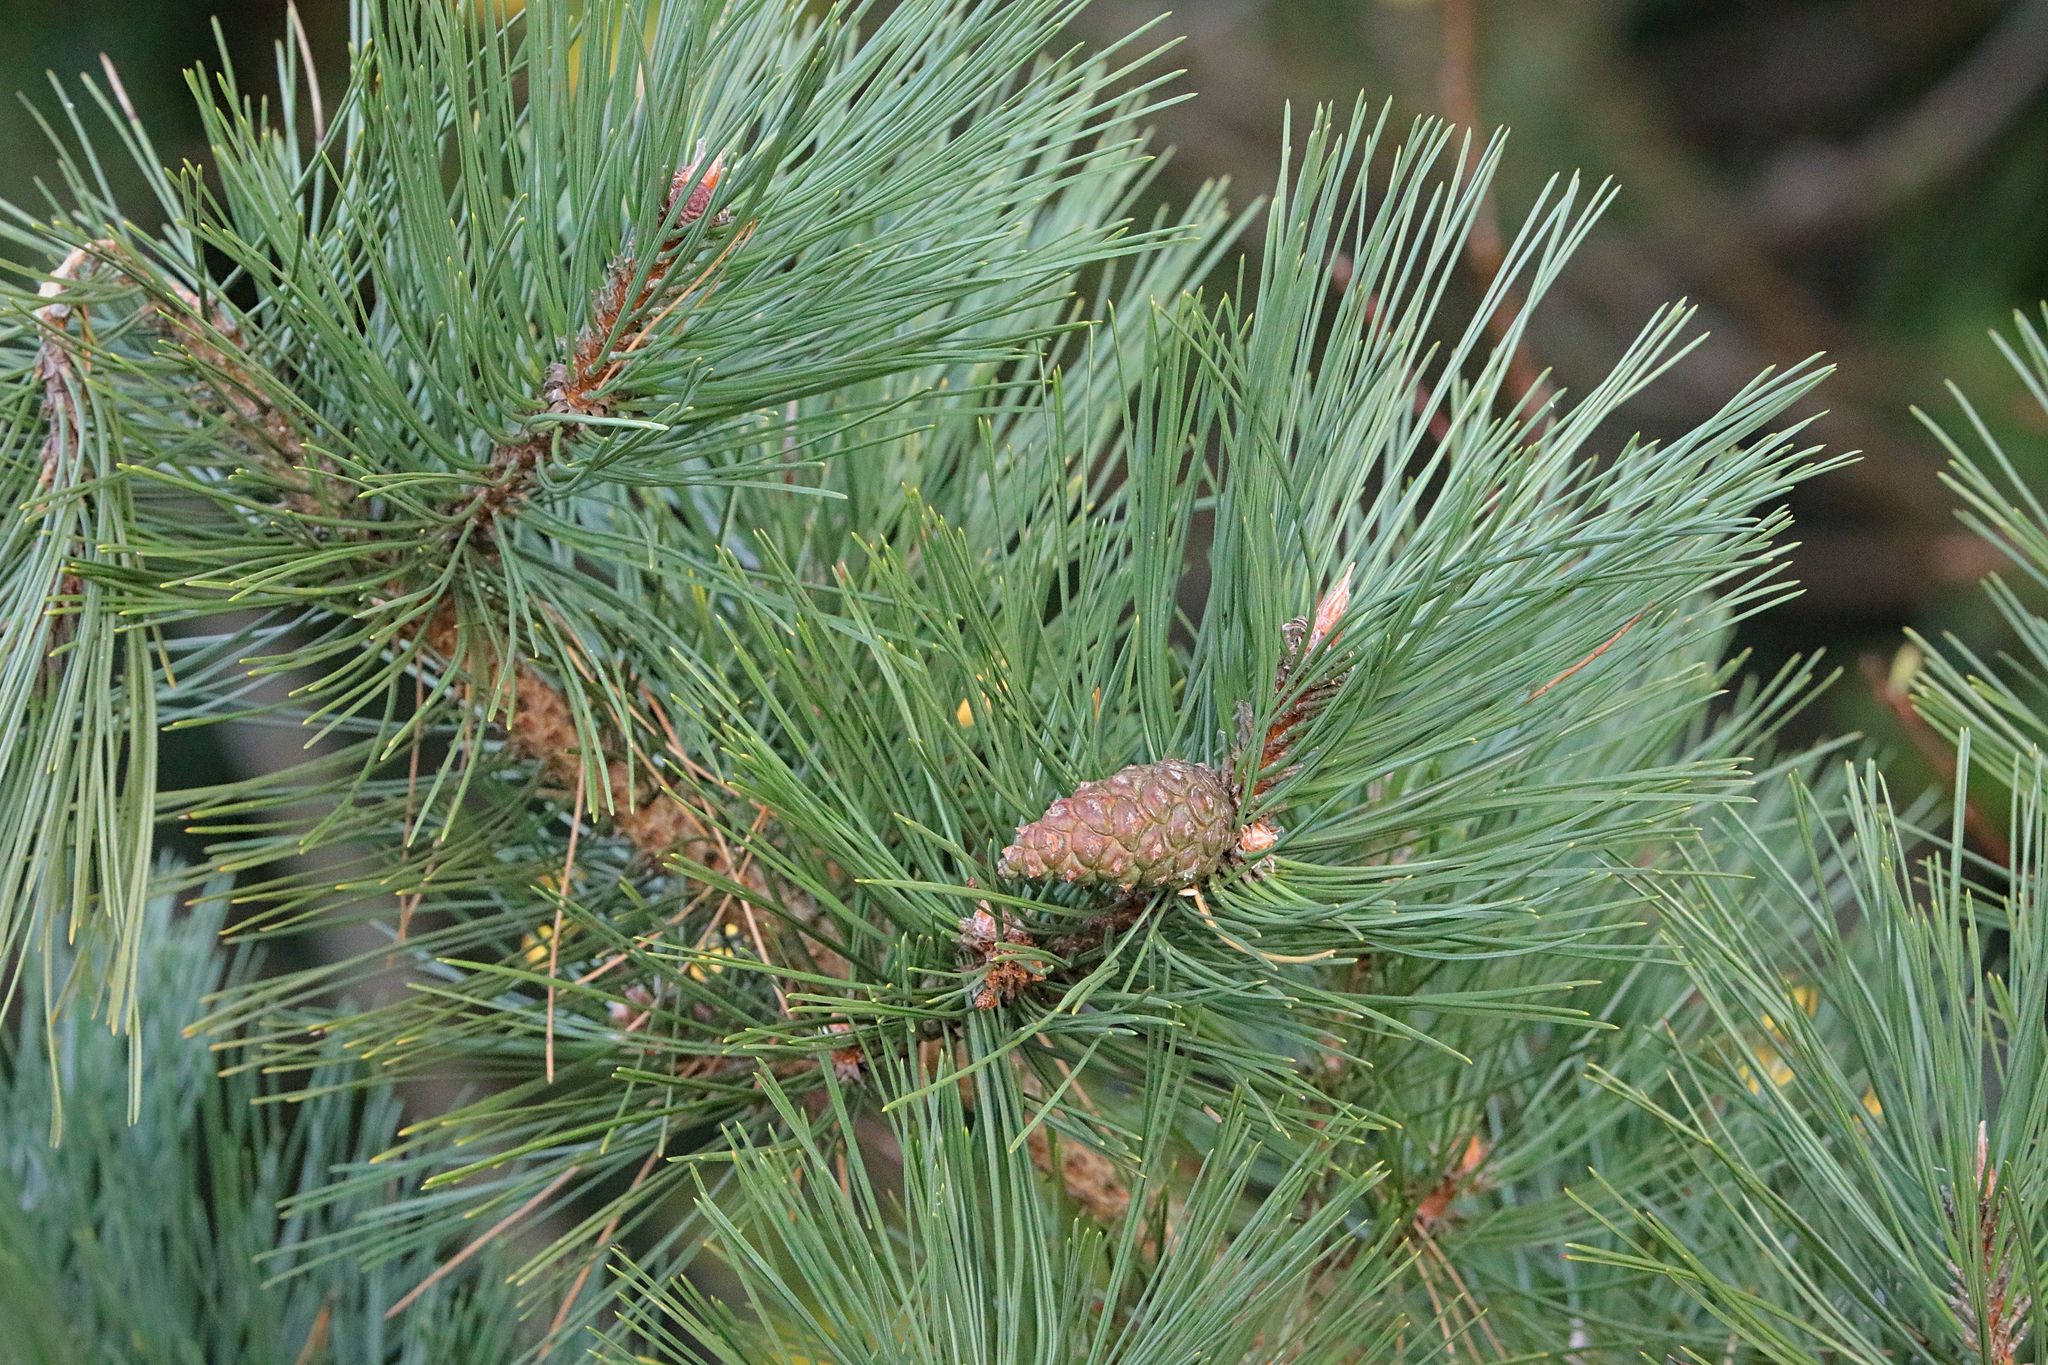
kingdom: Plantae
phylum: Tracheophyta
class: Pinopsida
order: Pinales
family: Pinaceae
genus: Pinus
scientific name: Pinus sylvestris
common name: Scots pine
